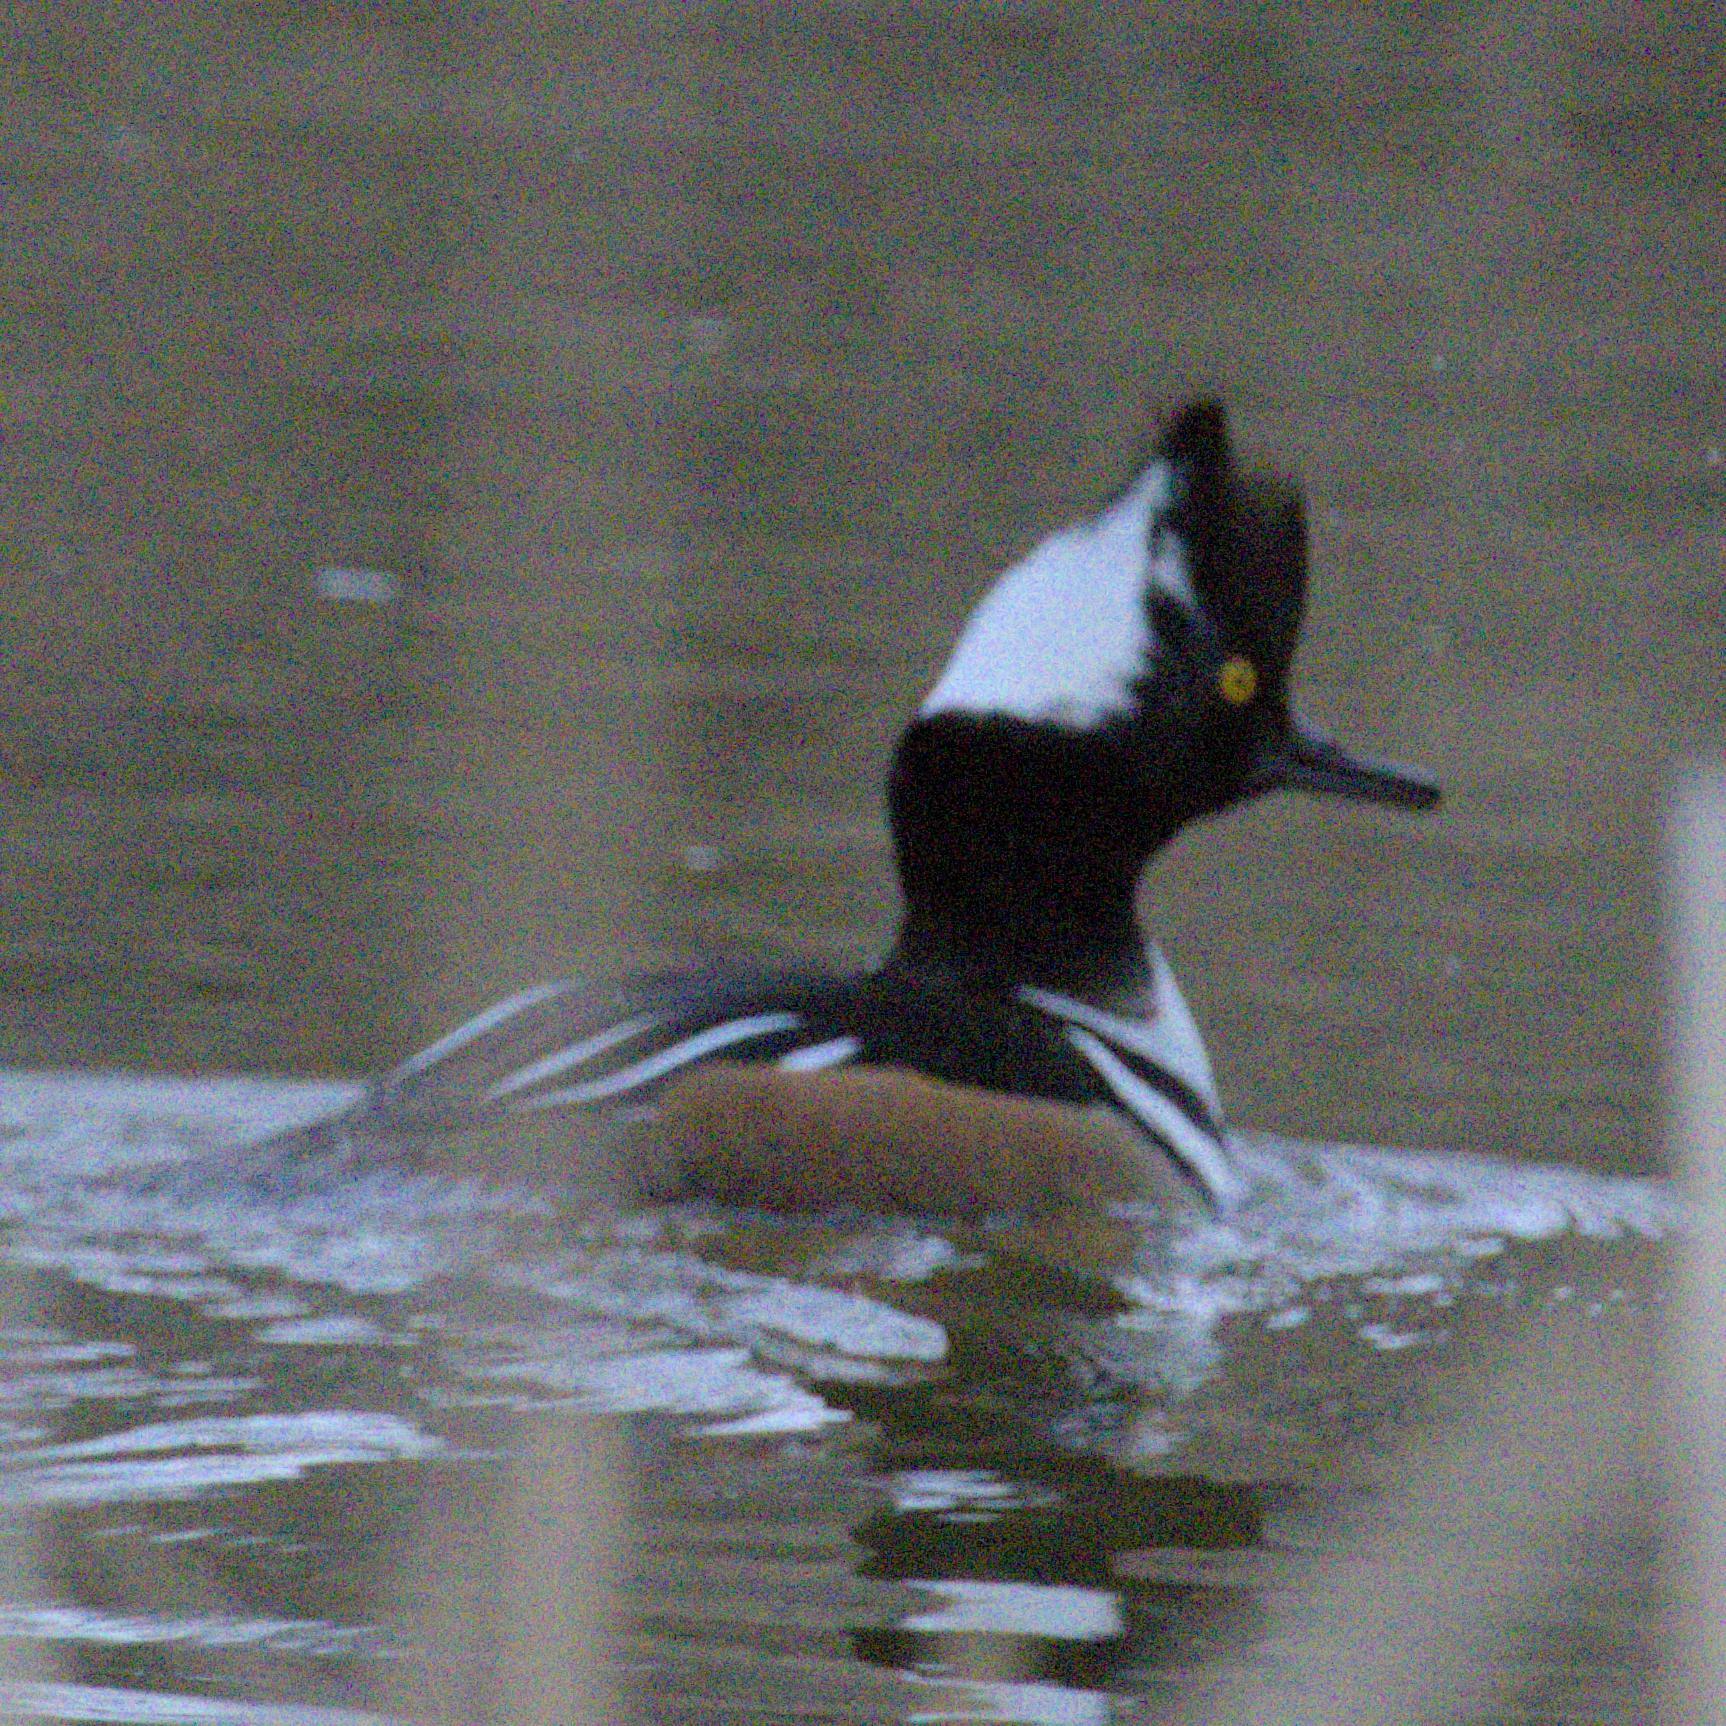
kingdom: Animalia
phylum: Chordata
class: Aves
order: Anseriformes
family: Anatidae
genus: Lophodytes
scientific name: Lophodytes cucullatus
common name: Hooded merganser
